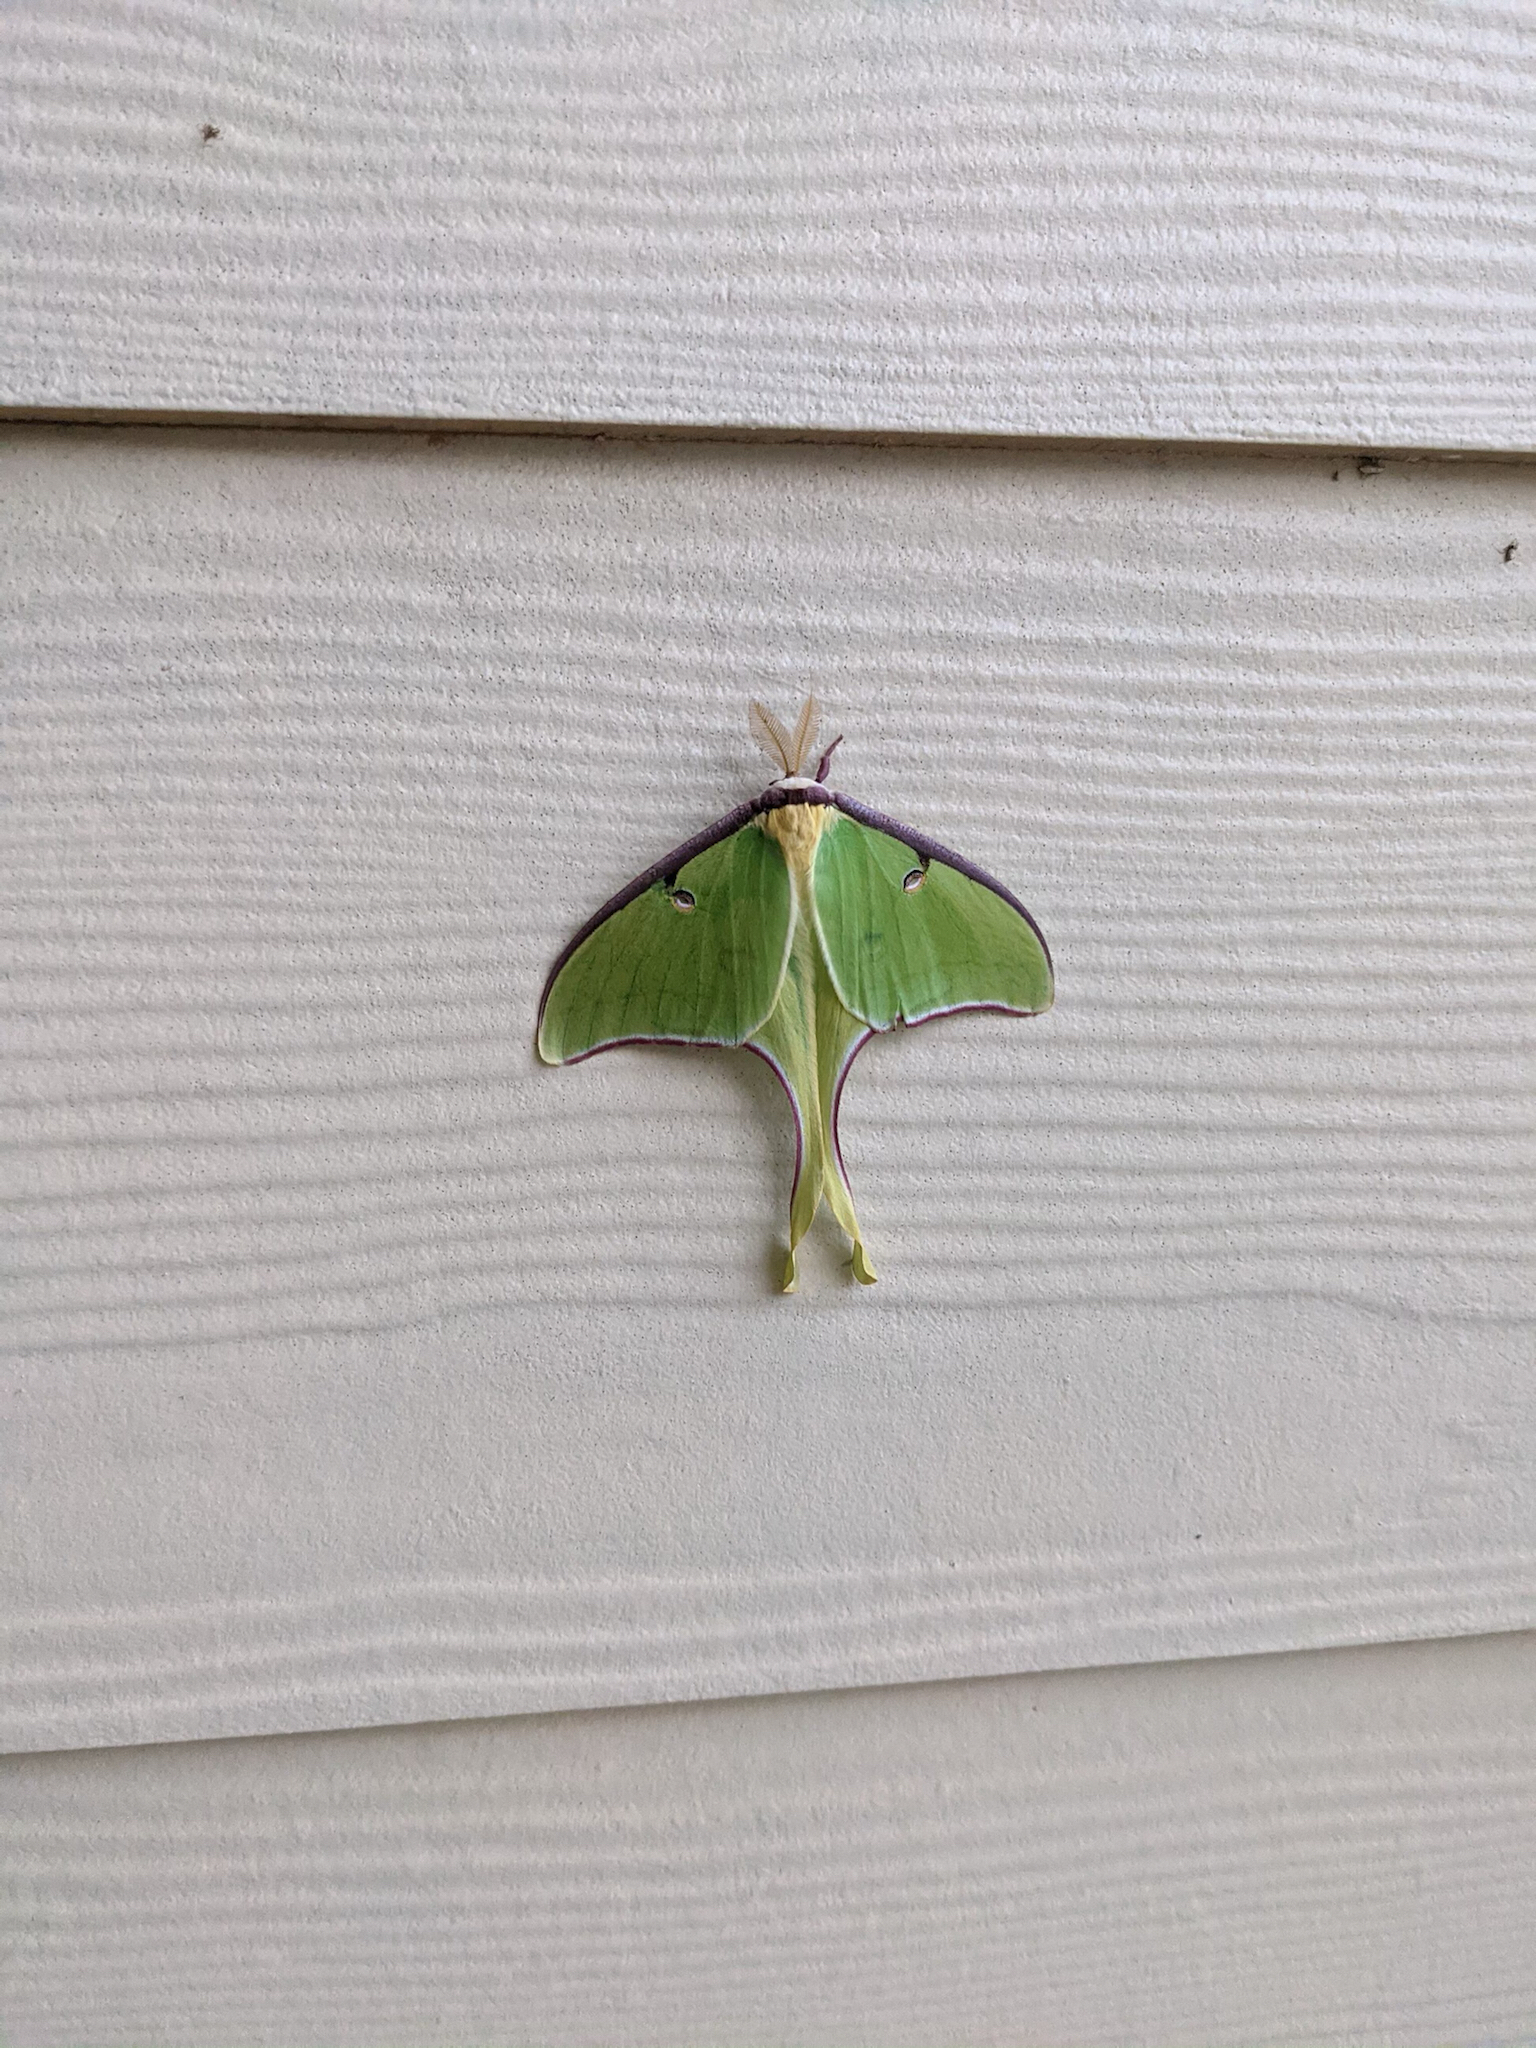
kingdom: Animalia
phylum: Arthropoda
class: Insecta
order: Lepidoptera
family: Saturniidae
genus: Actias
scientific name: Actias luna
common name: Luna moth
